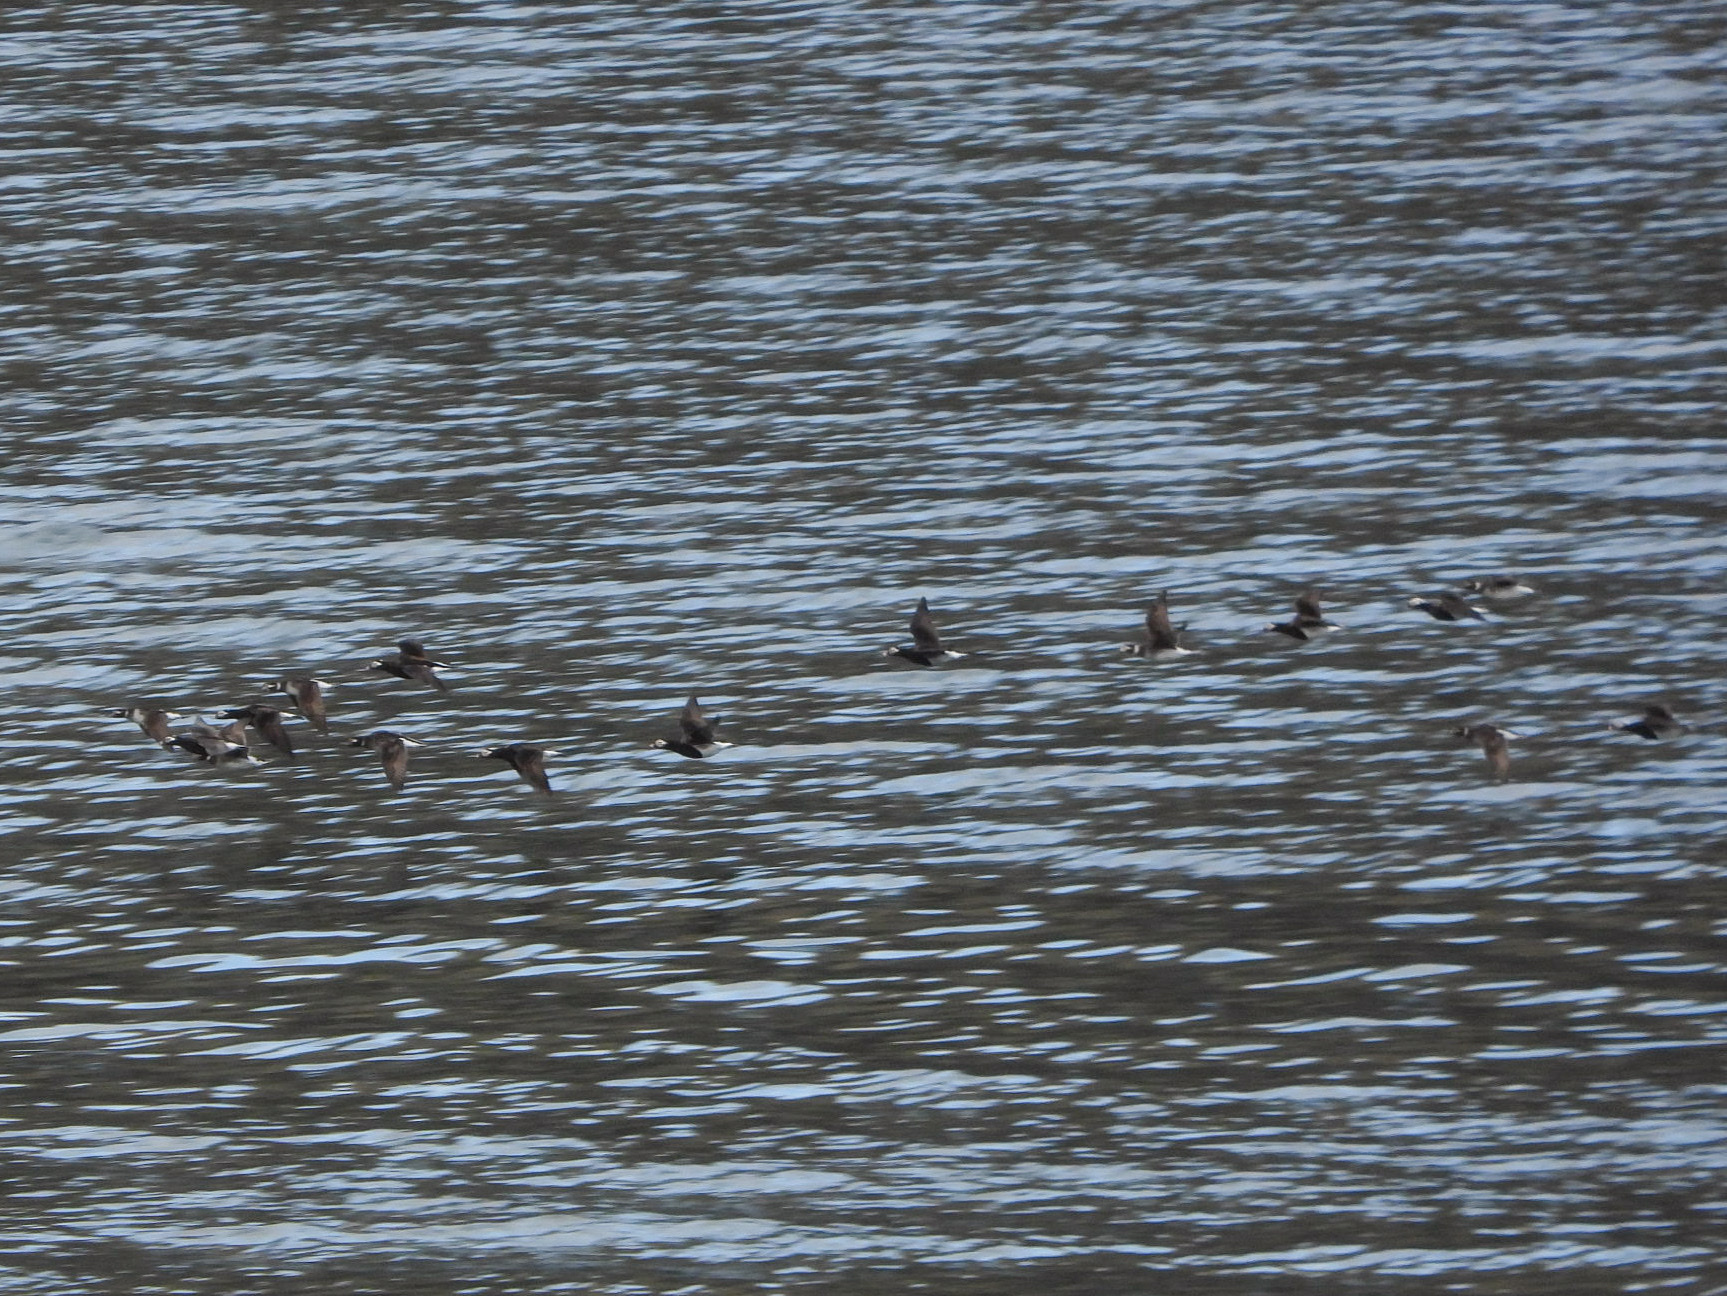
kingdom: Animalia
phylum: Chordata
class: Aves
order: Anseriformes
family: Anatidae
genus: Clangula
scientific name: Clangula hyemalis
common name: Long-tailed duck
